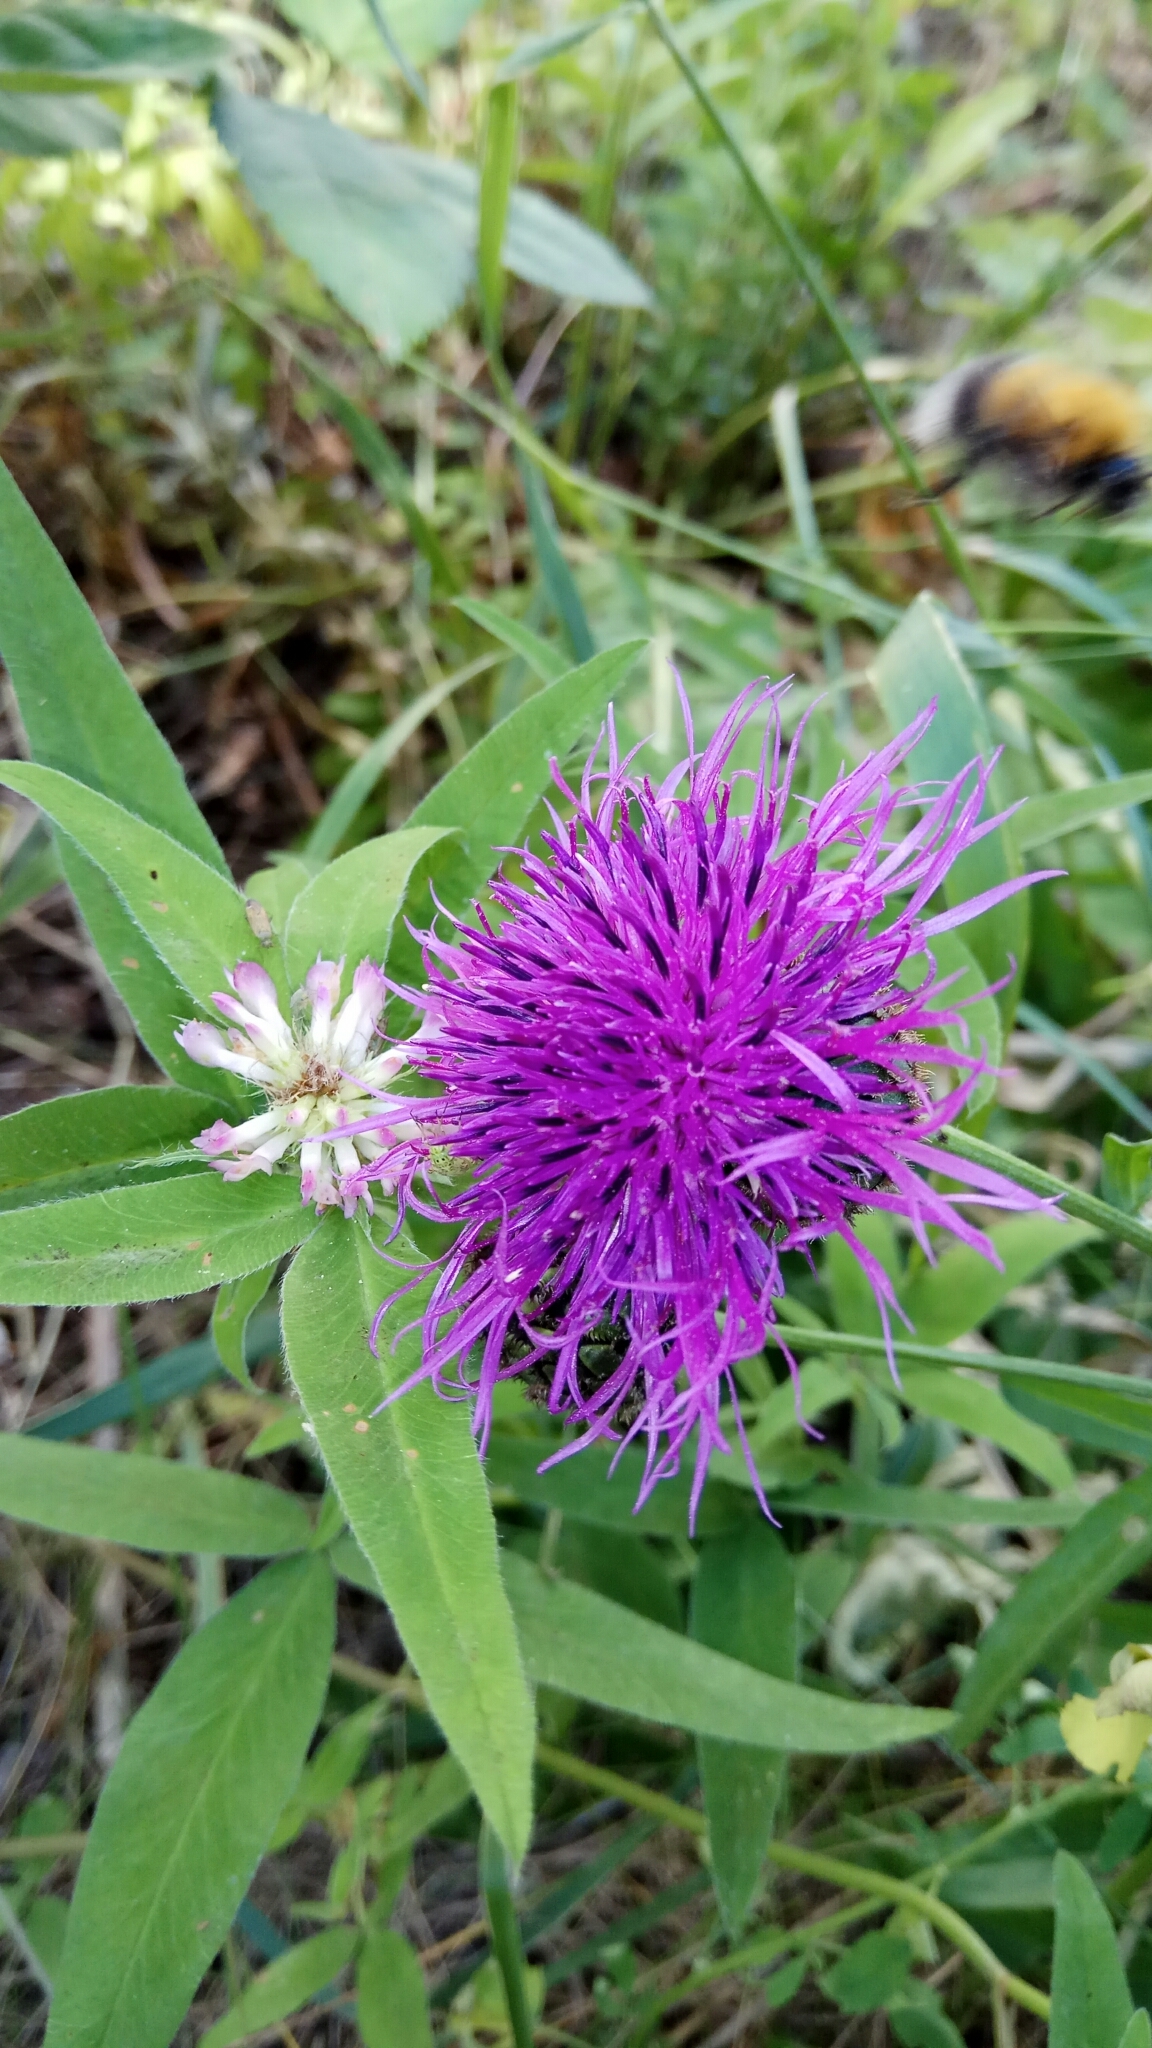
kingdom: Plantae
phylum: Tracheophyta
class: Magnoliopsida
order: Asterales
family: Asteraceae
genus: Centaurea
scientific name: Centaurea scabiosa
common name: Greater knapweed
